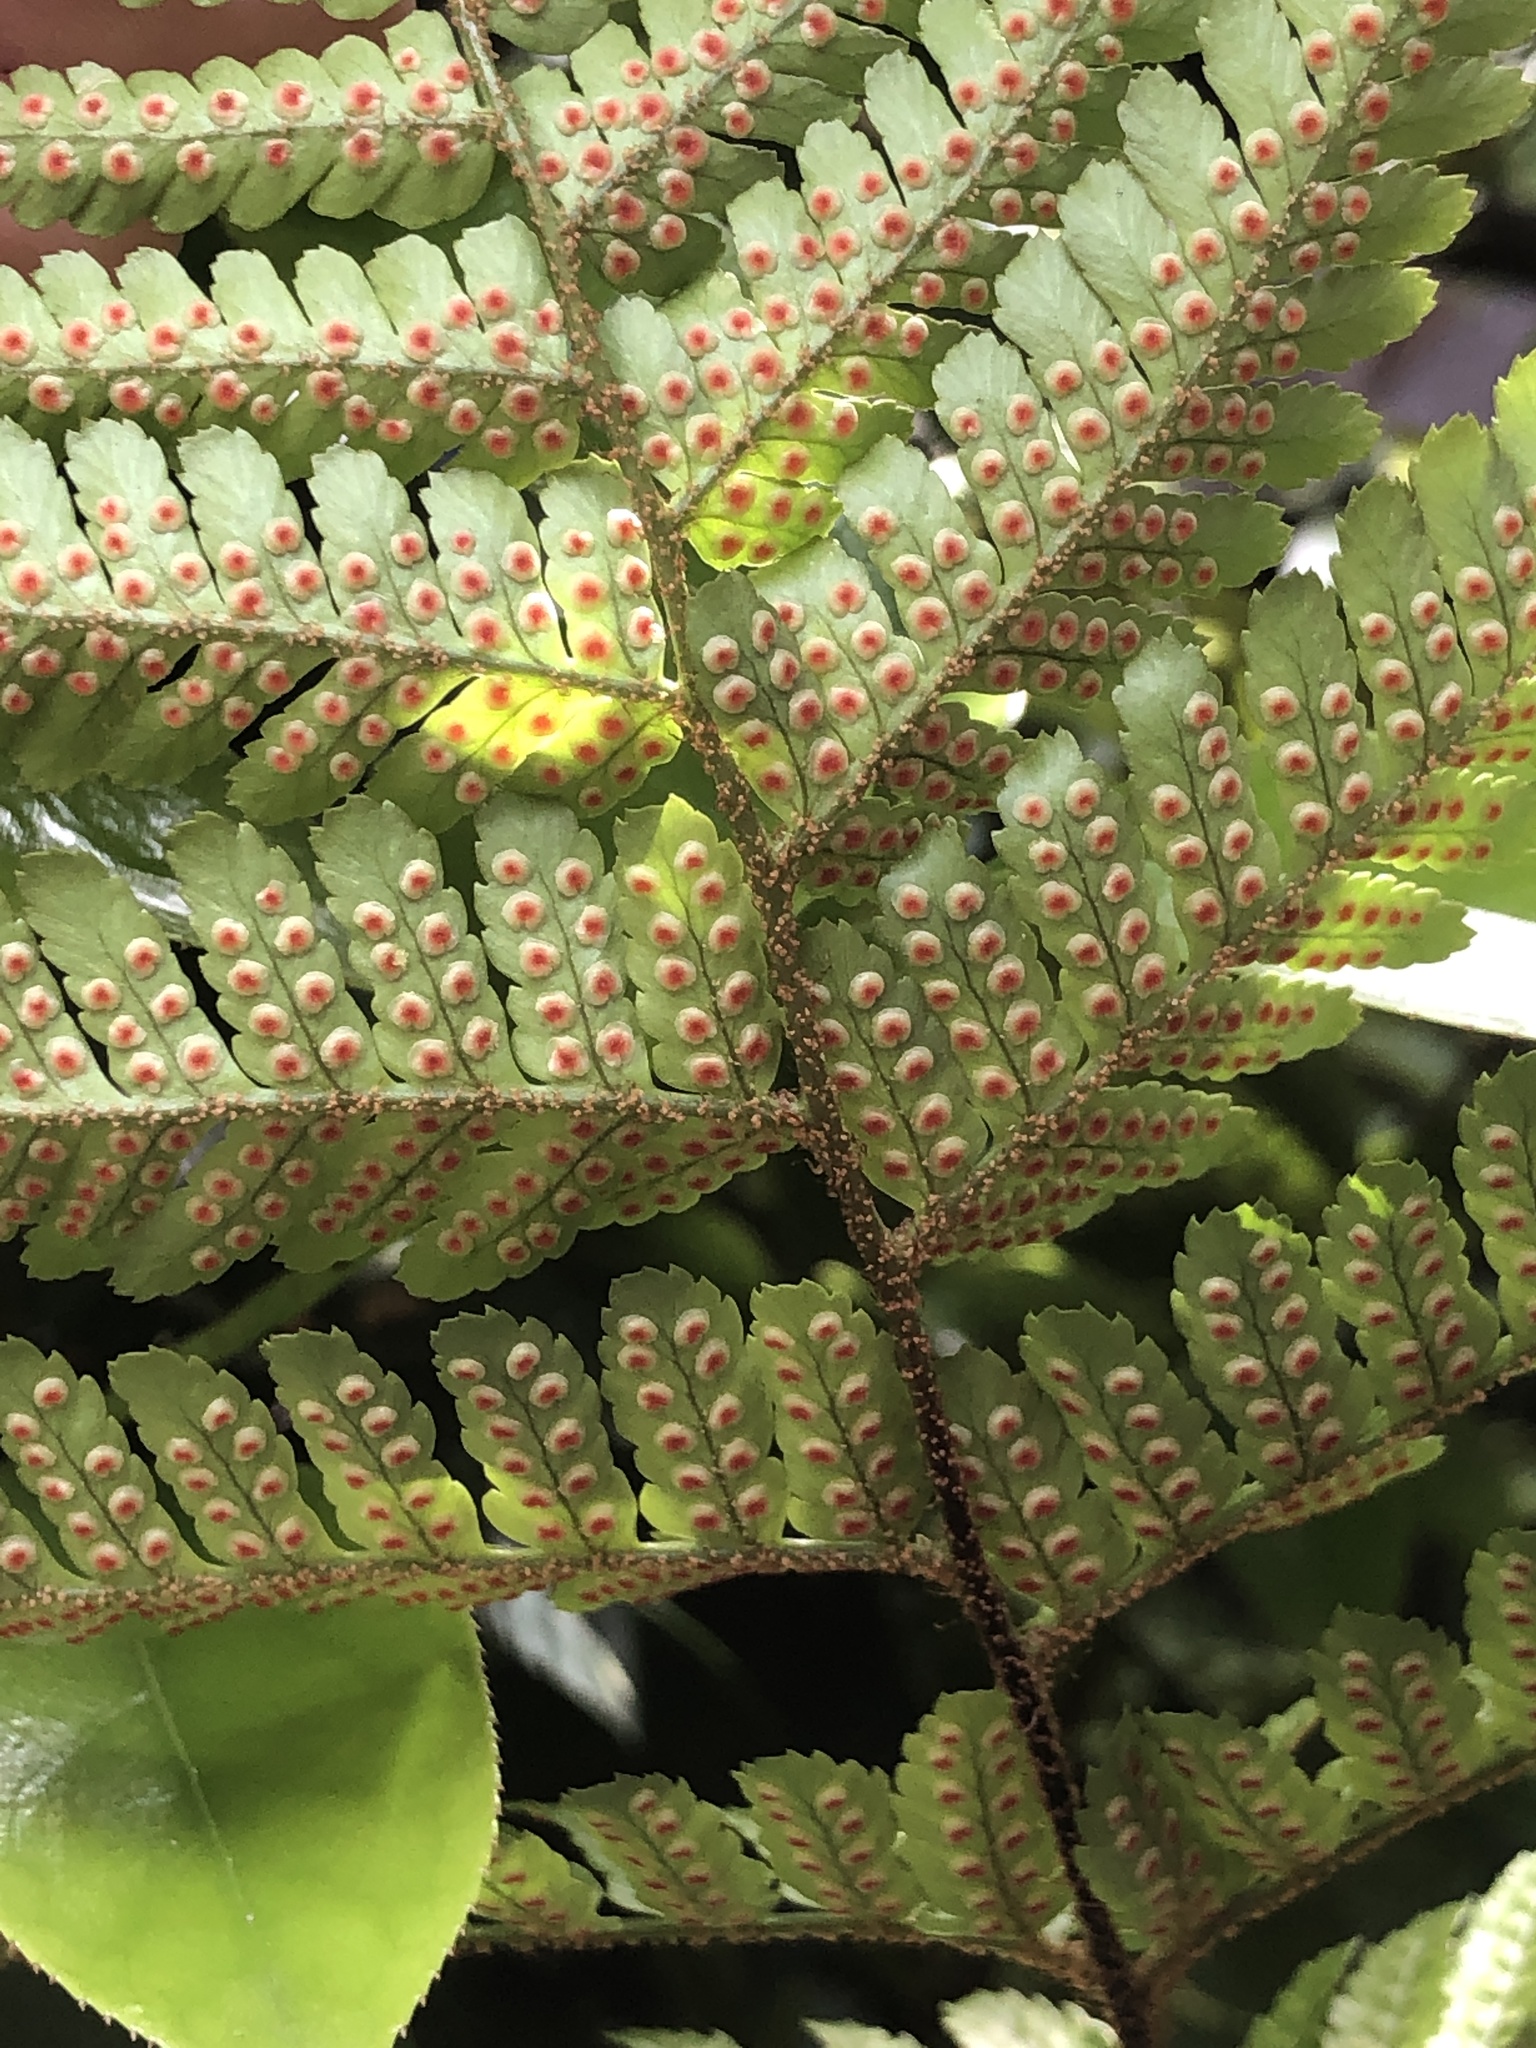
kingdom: Plantae
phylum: Tracheophyta
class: Polypodiopsida
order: Polypodiales
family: Dryopteridaceae
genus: Dryopteris
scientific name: Dryopteris erythrosora
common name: Autumn fern
